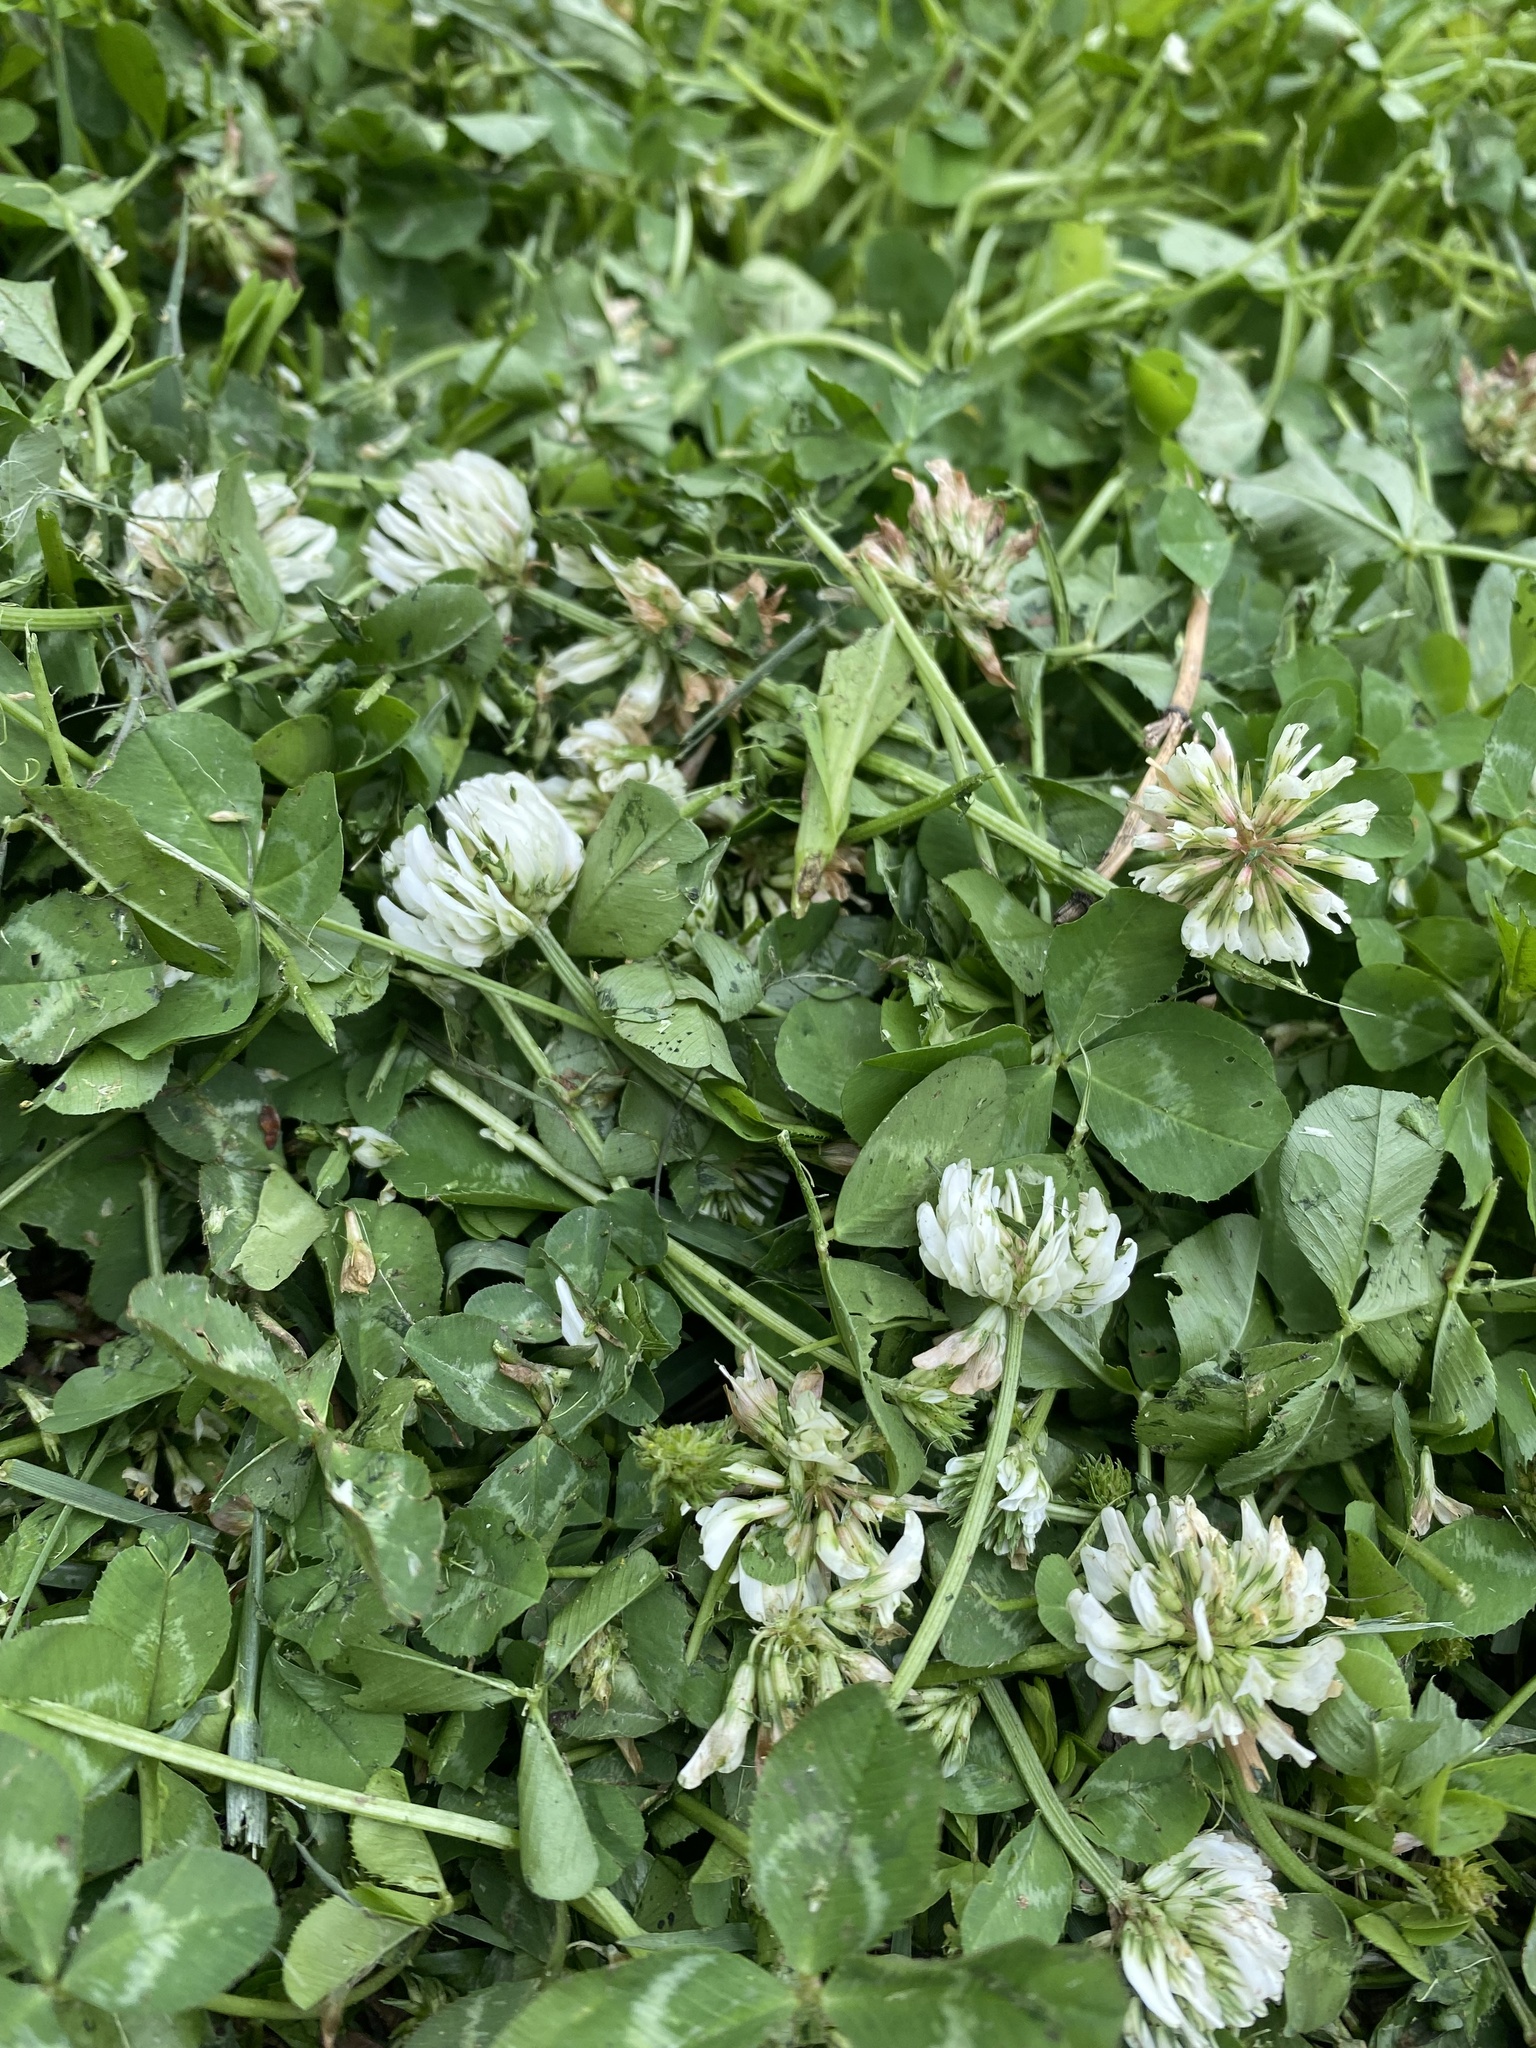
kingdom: Plantae
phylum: Tracheophyta
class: Magnoliopsida
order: Fabales
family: Fabaceae
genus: Trifolium
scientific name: Trifolium repens
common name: White clover
